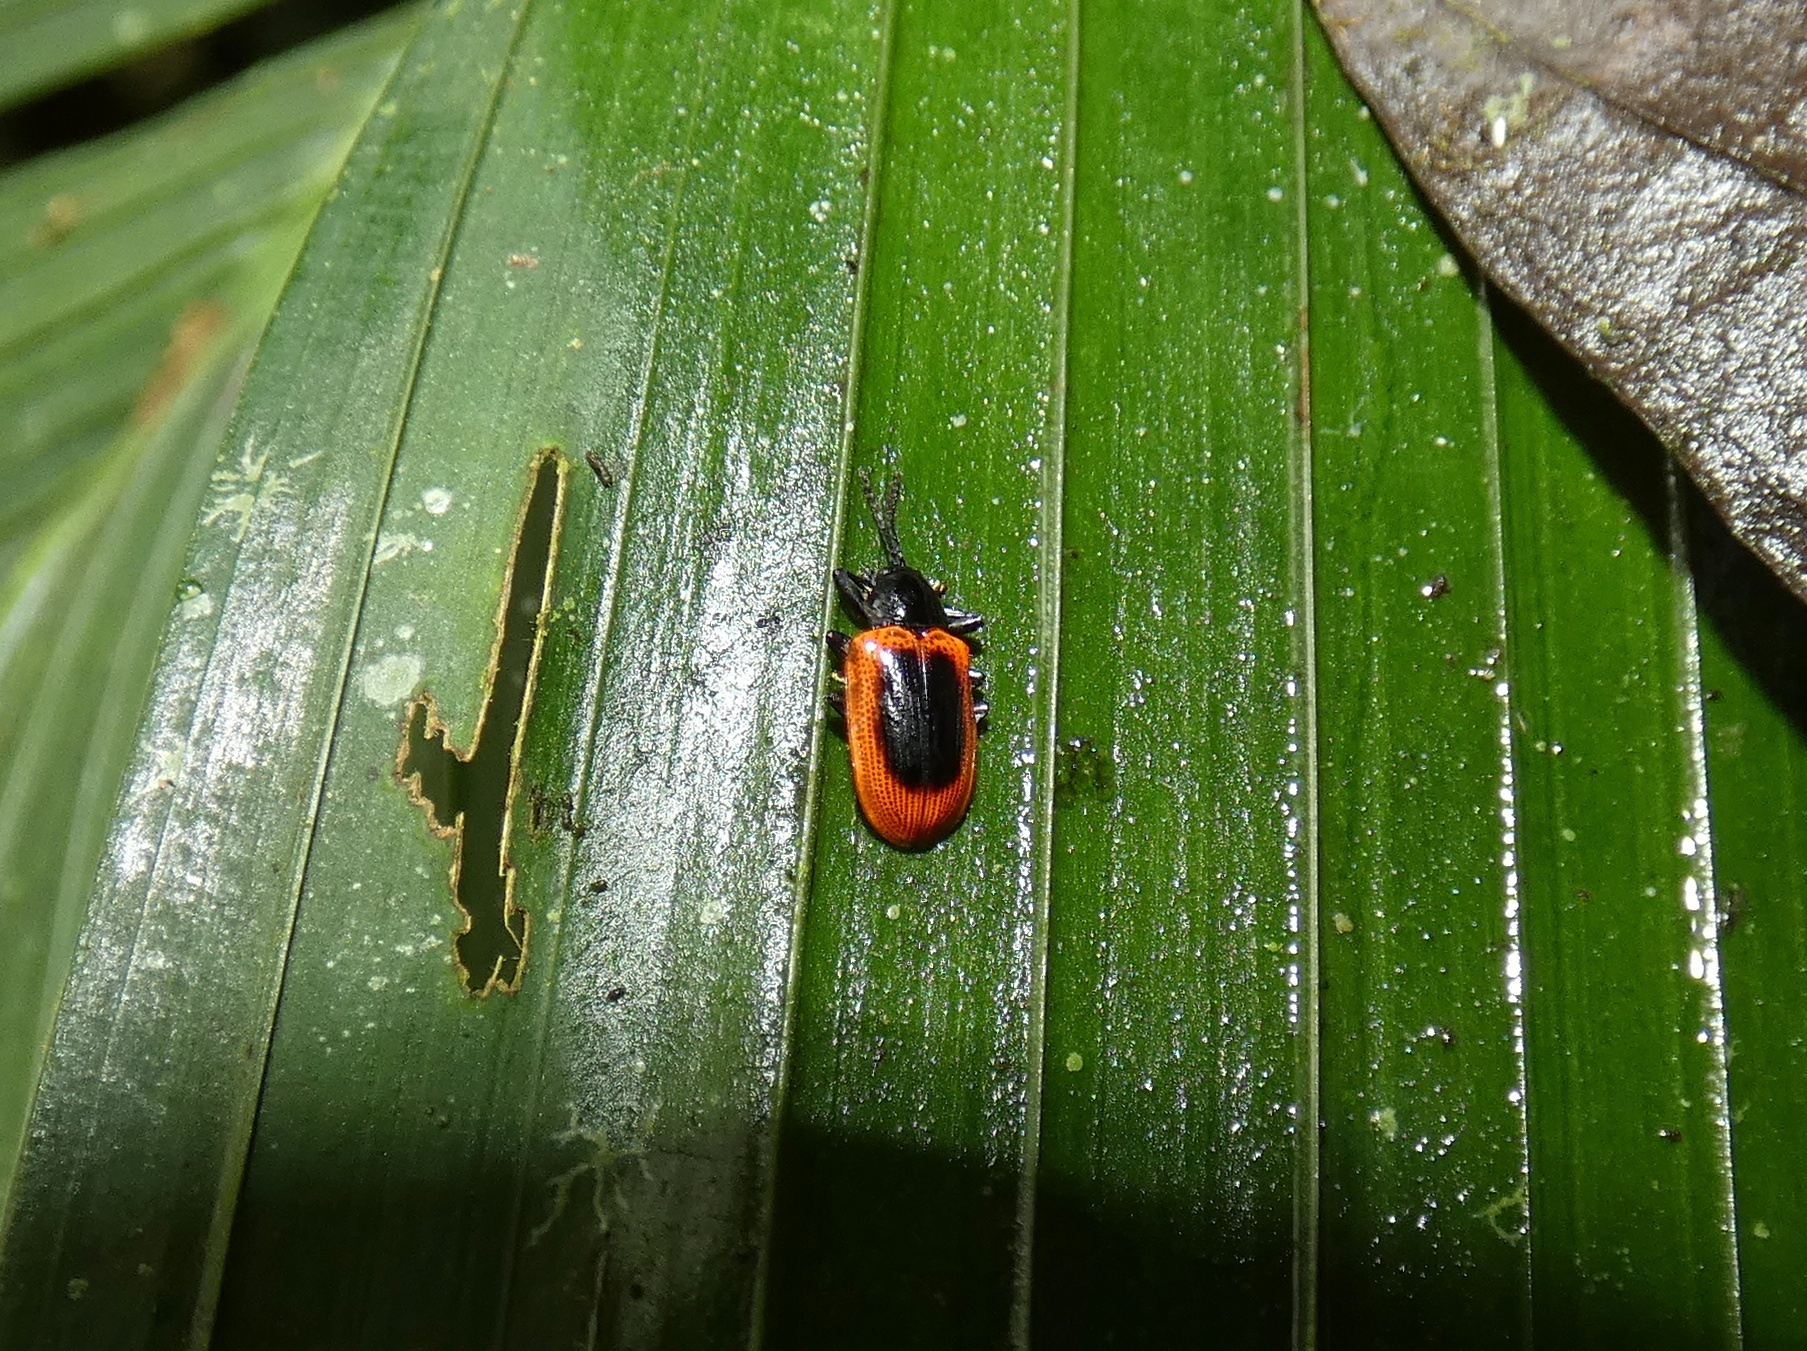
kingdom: Animalia
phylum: Arthropoda
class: Insecta
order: Coleoptera
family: Chrysomelidae
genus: Prosopodonta
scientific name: Prosopodonta dorsata
